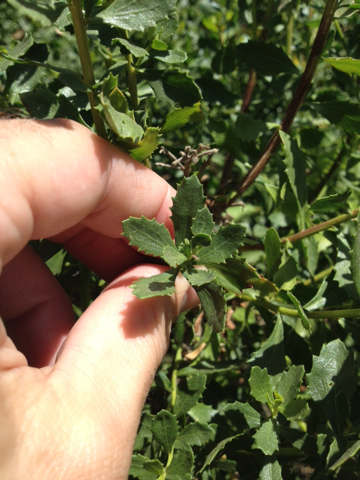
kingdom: Plantae
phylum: Tracheophyta
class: Magnoliopsida
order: Asterales
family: Asteraceae
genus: Baccharis
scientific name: Baccharis pilularis
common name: Coyotebrush
